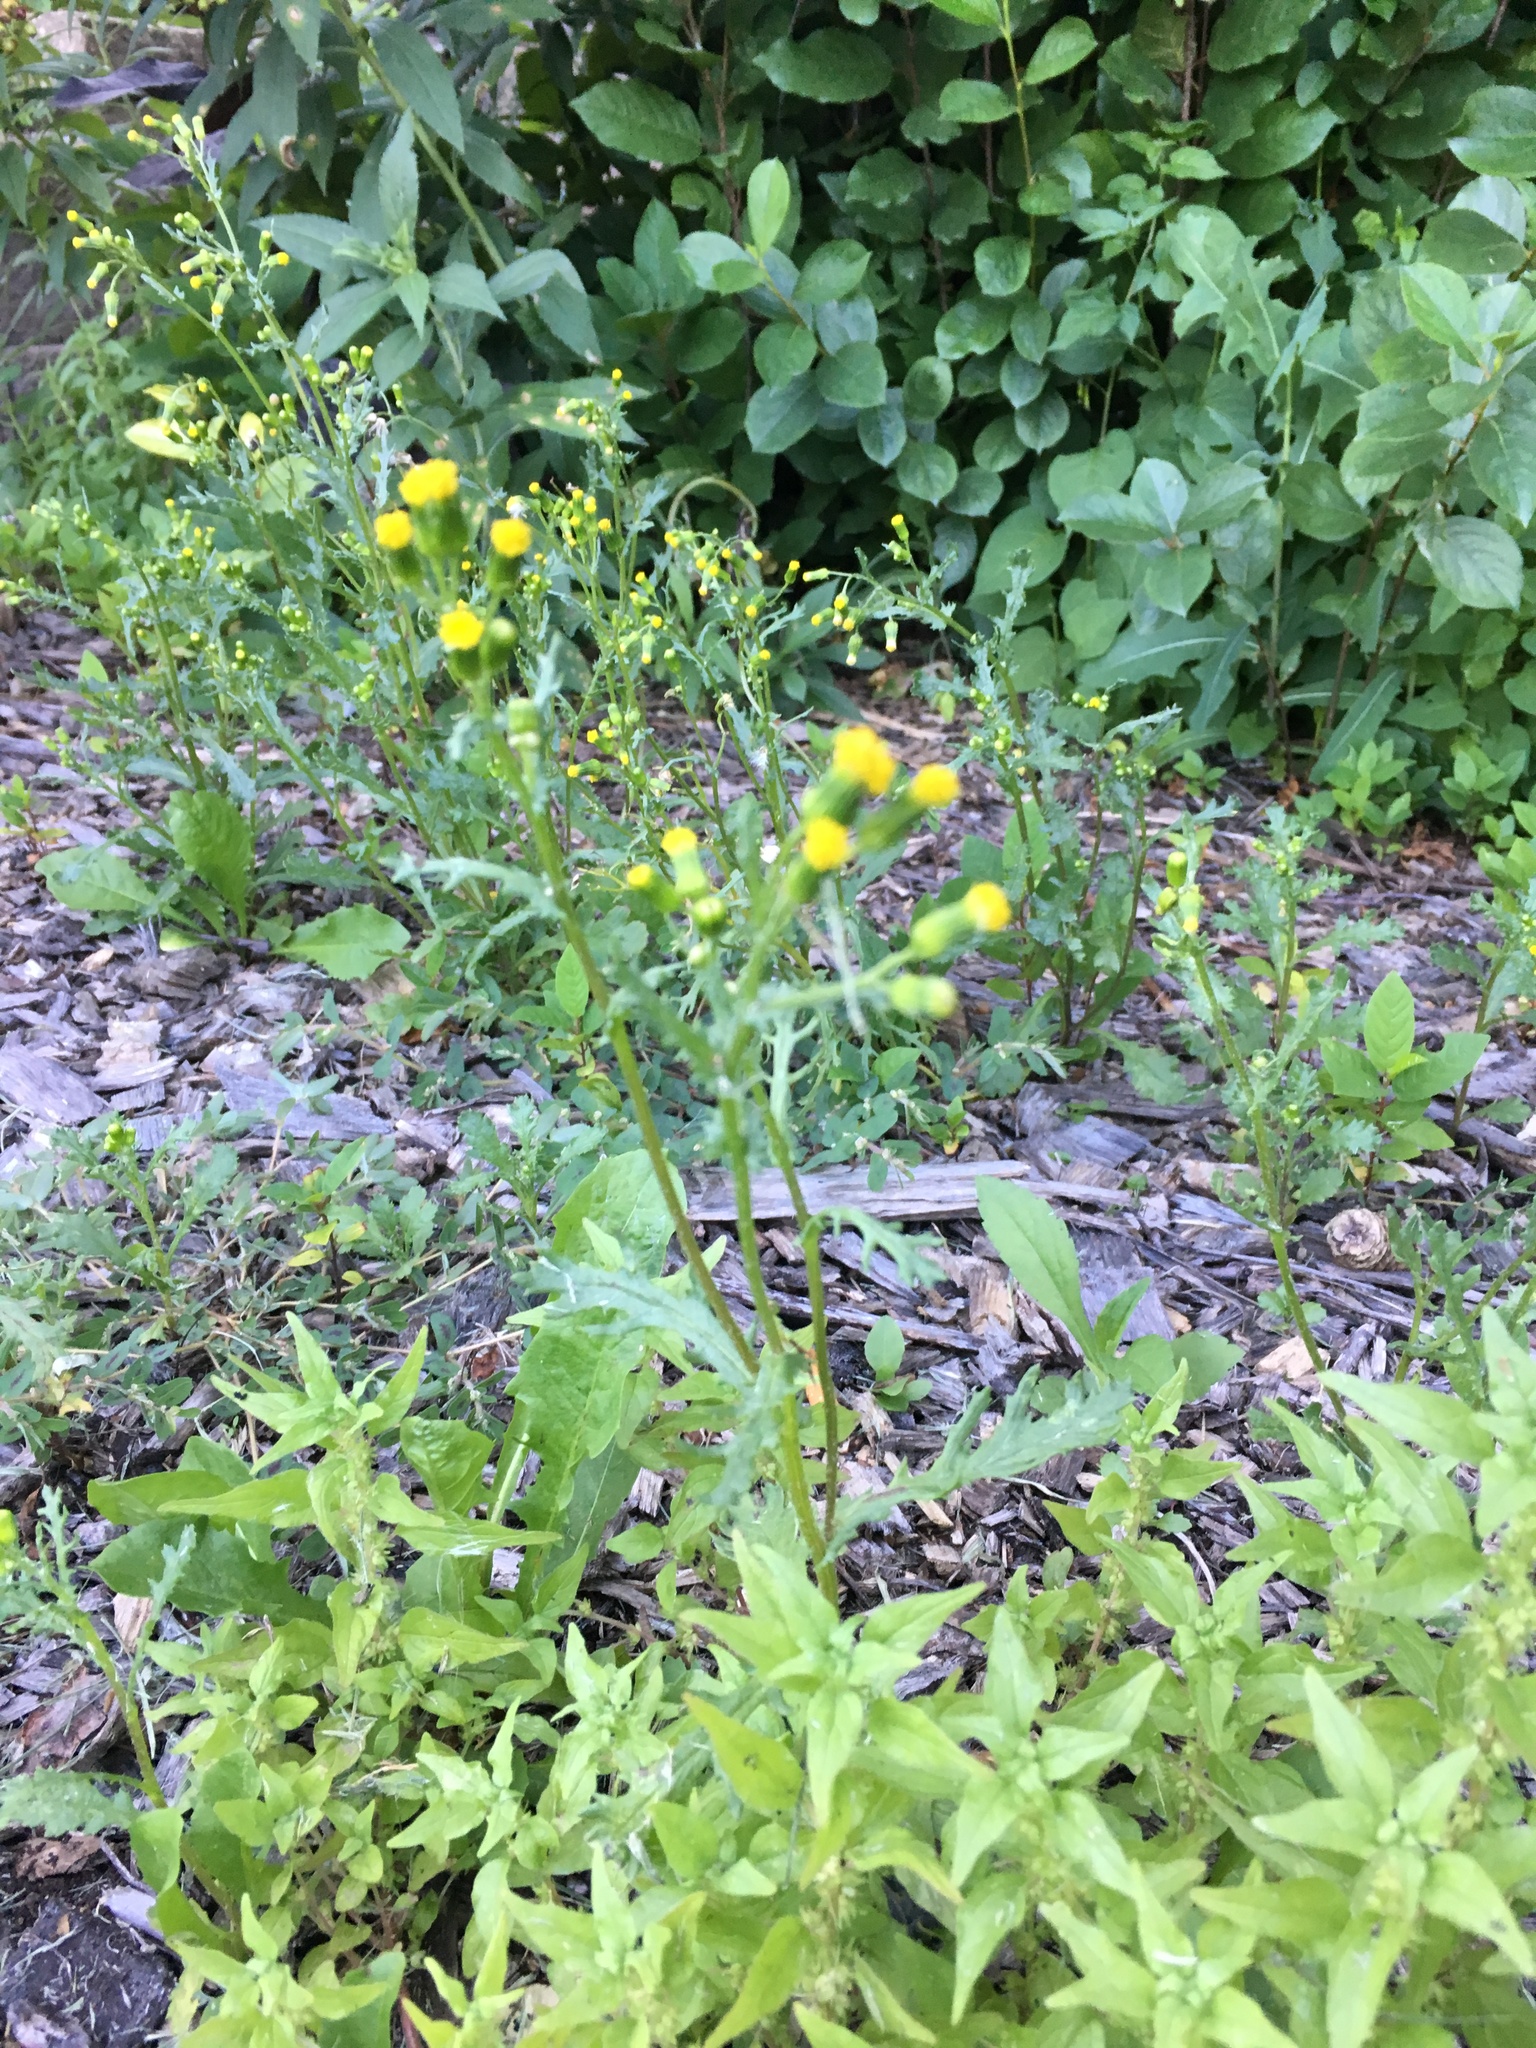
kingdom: Plantae
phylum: Tracheophyta
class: Magnoliopsida
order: Asterales
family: Asteraceae
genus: Senecio
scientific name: Senecio vulgaris
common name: Old-man-in-the-spring
